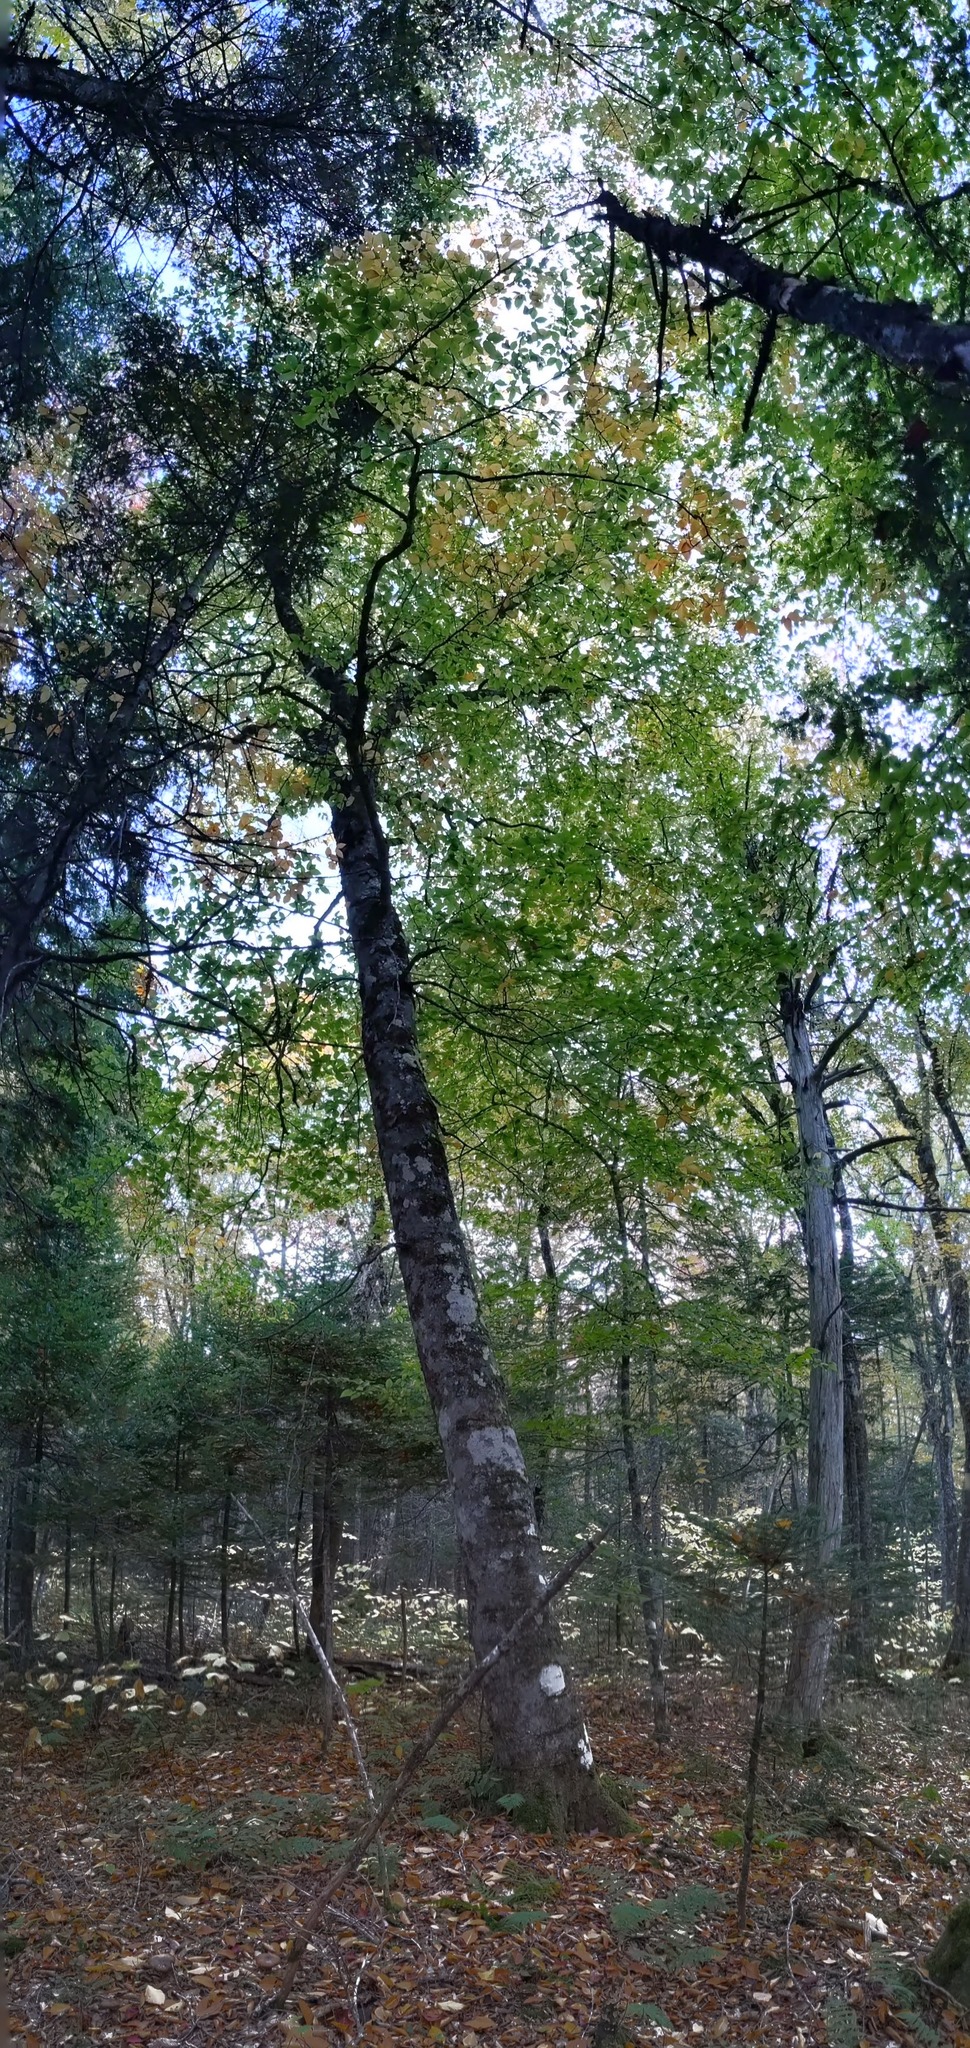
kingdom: Plantae
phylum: Tracheophyta
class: Magnoliopsida
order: Fagales
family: Fagaceae
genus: Fagus
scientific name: Fagus grandifolia
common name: American beech
